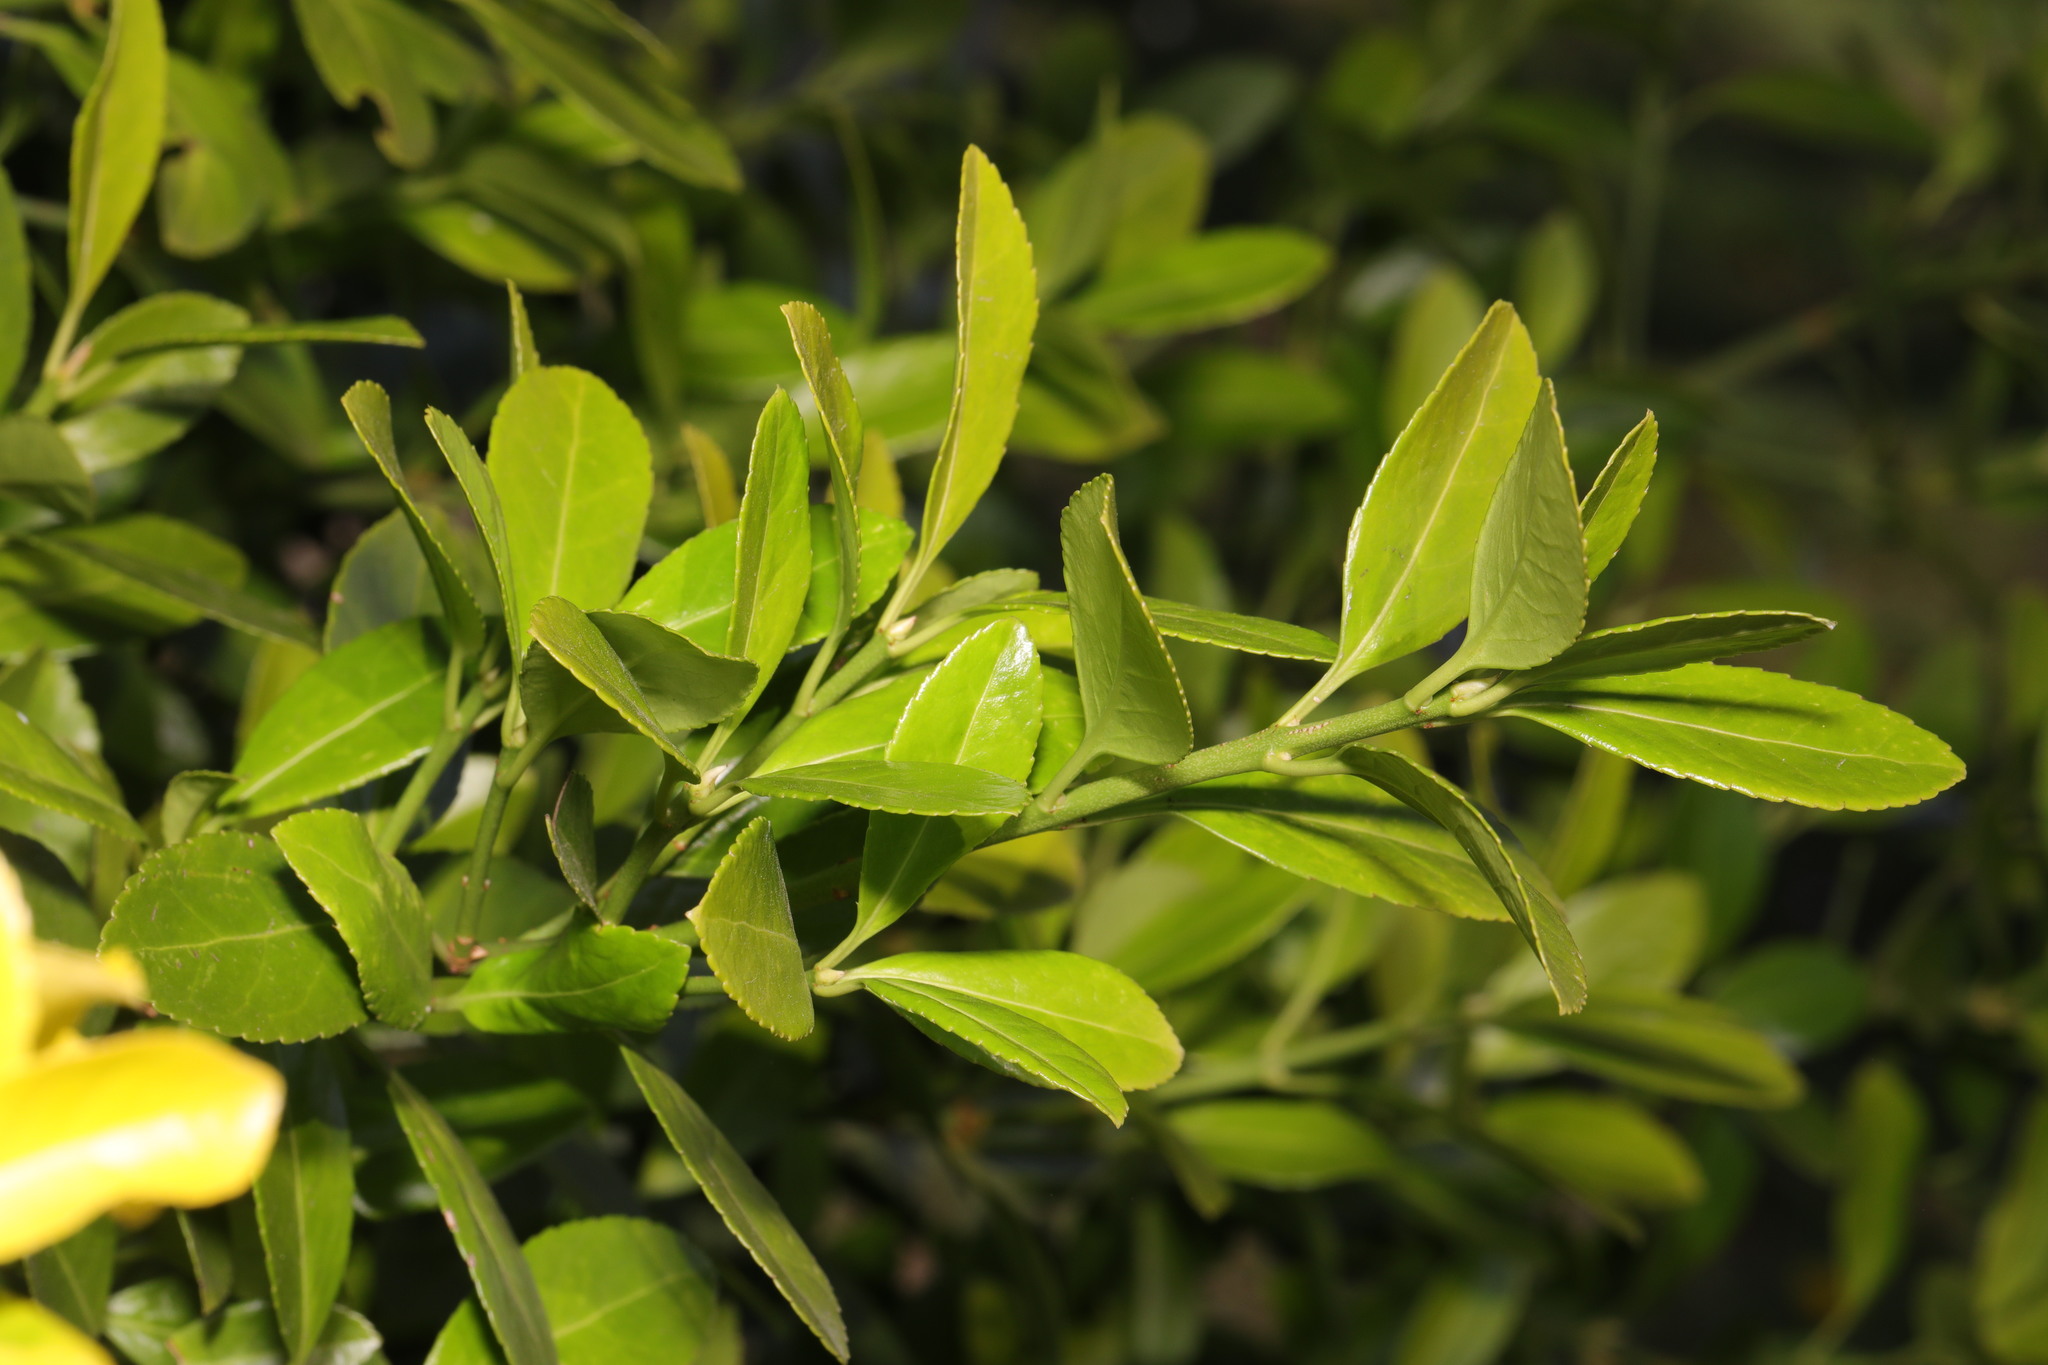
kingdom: Plantae
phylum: Tracheophyta
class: Magnoliopsida
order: Celastrales
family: Celastraceae
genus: Euonymus
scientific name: Euonymus japonicus
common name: Japanese spindletree
